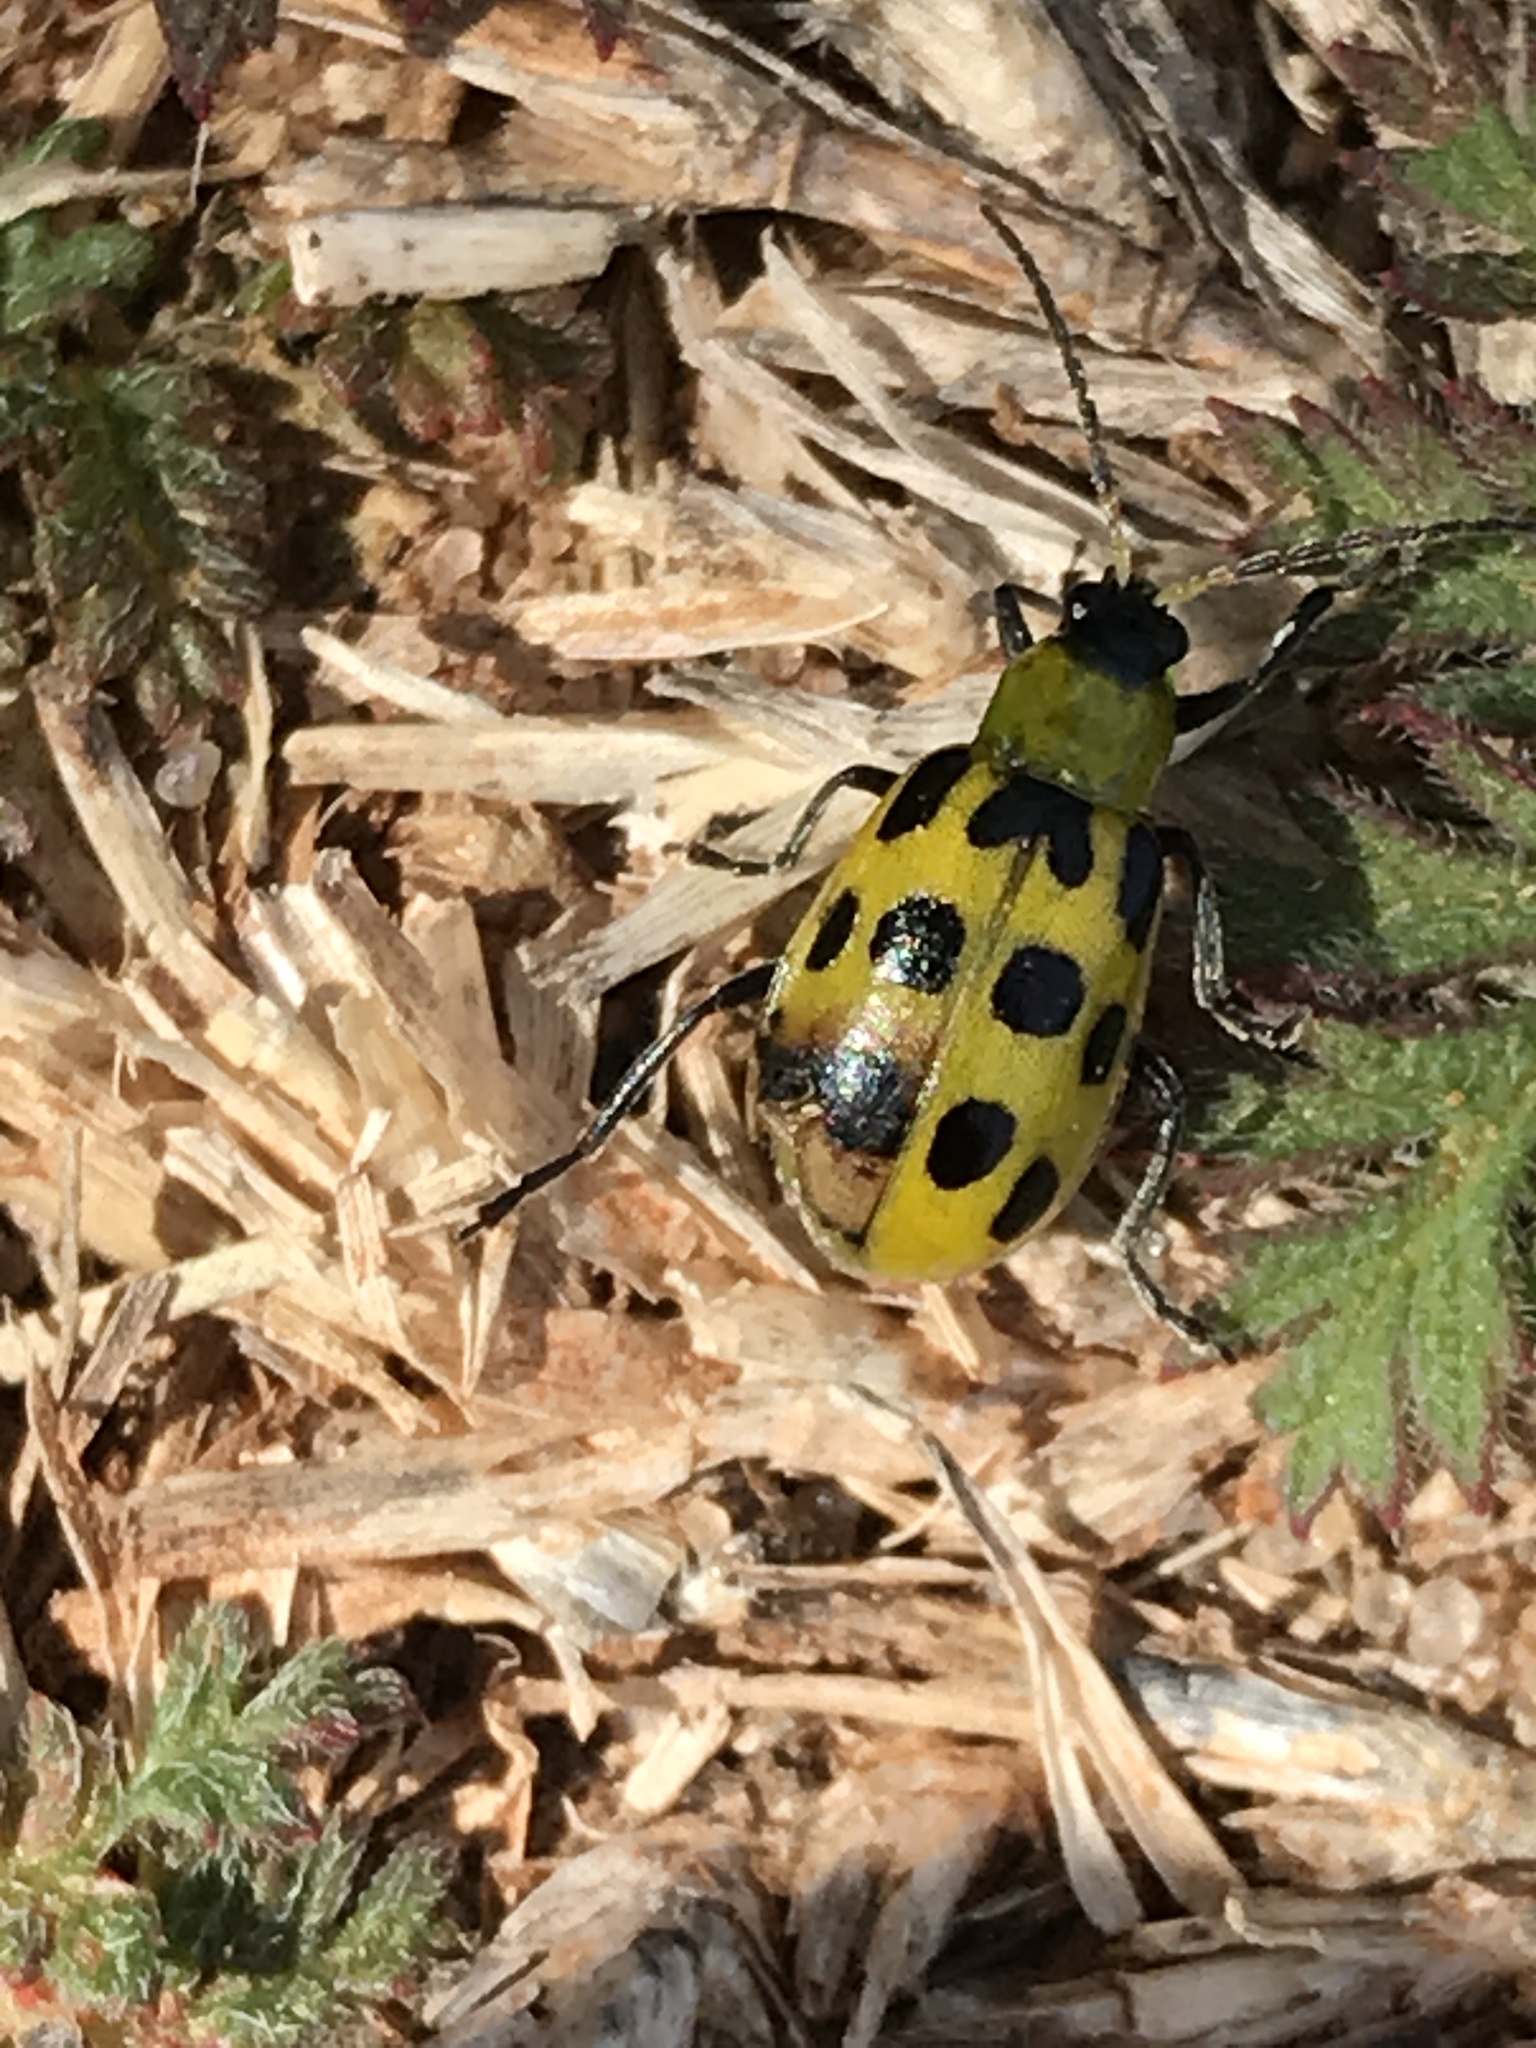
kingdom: Animalia
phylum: Arthropoda
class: Insecta
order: Coleoptera
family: Chrysomelidae
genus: Diabrotica
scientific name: Diabrotica undecimpunctata
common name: Spotted cucumber beetle
